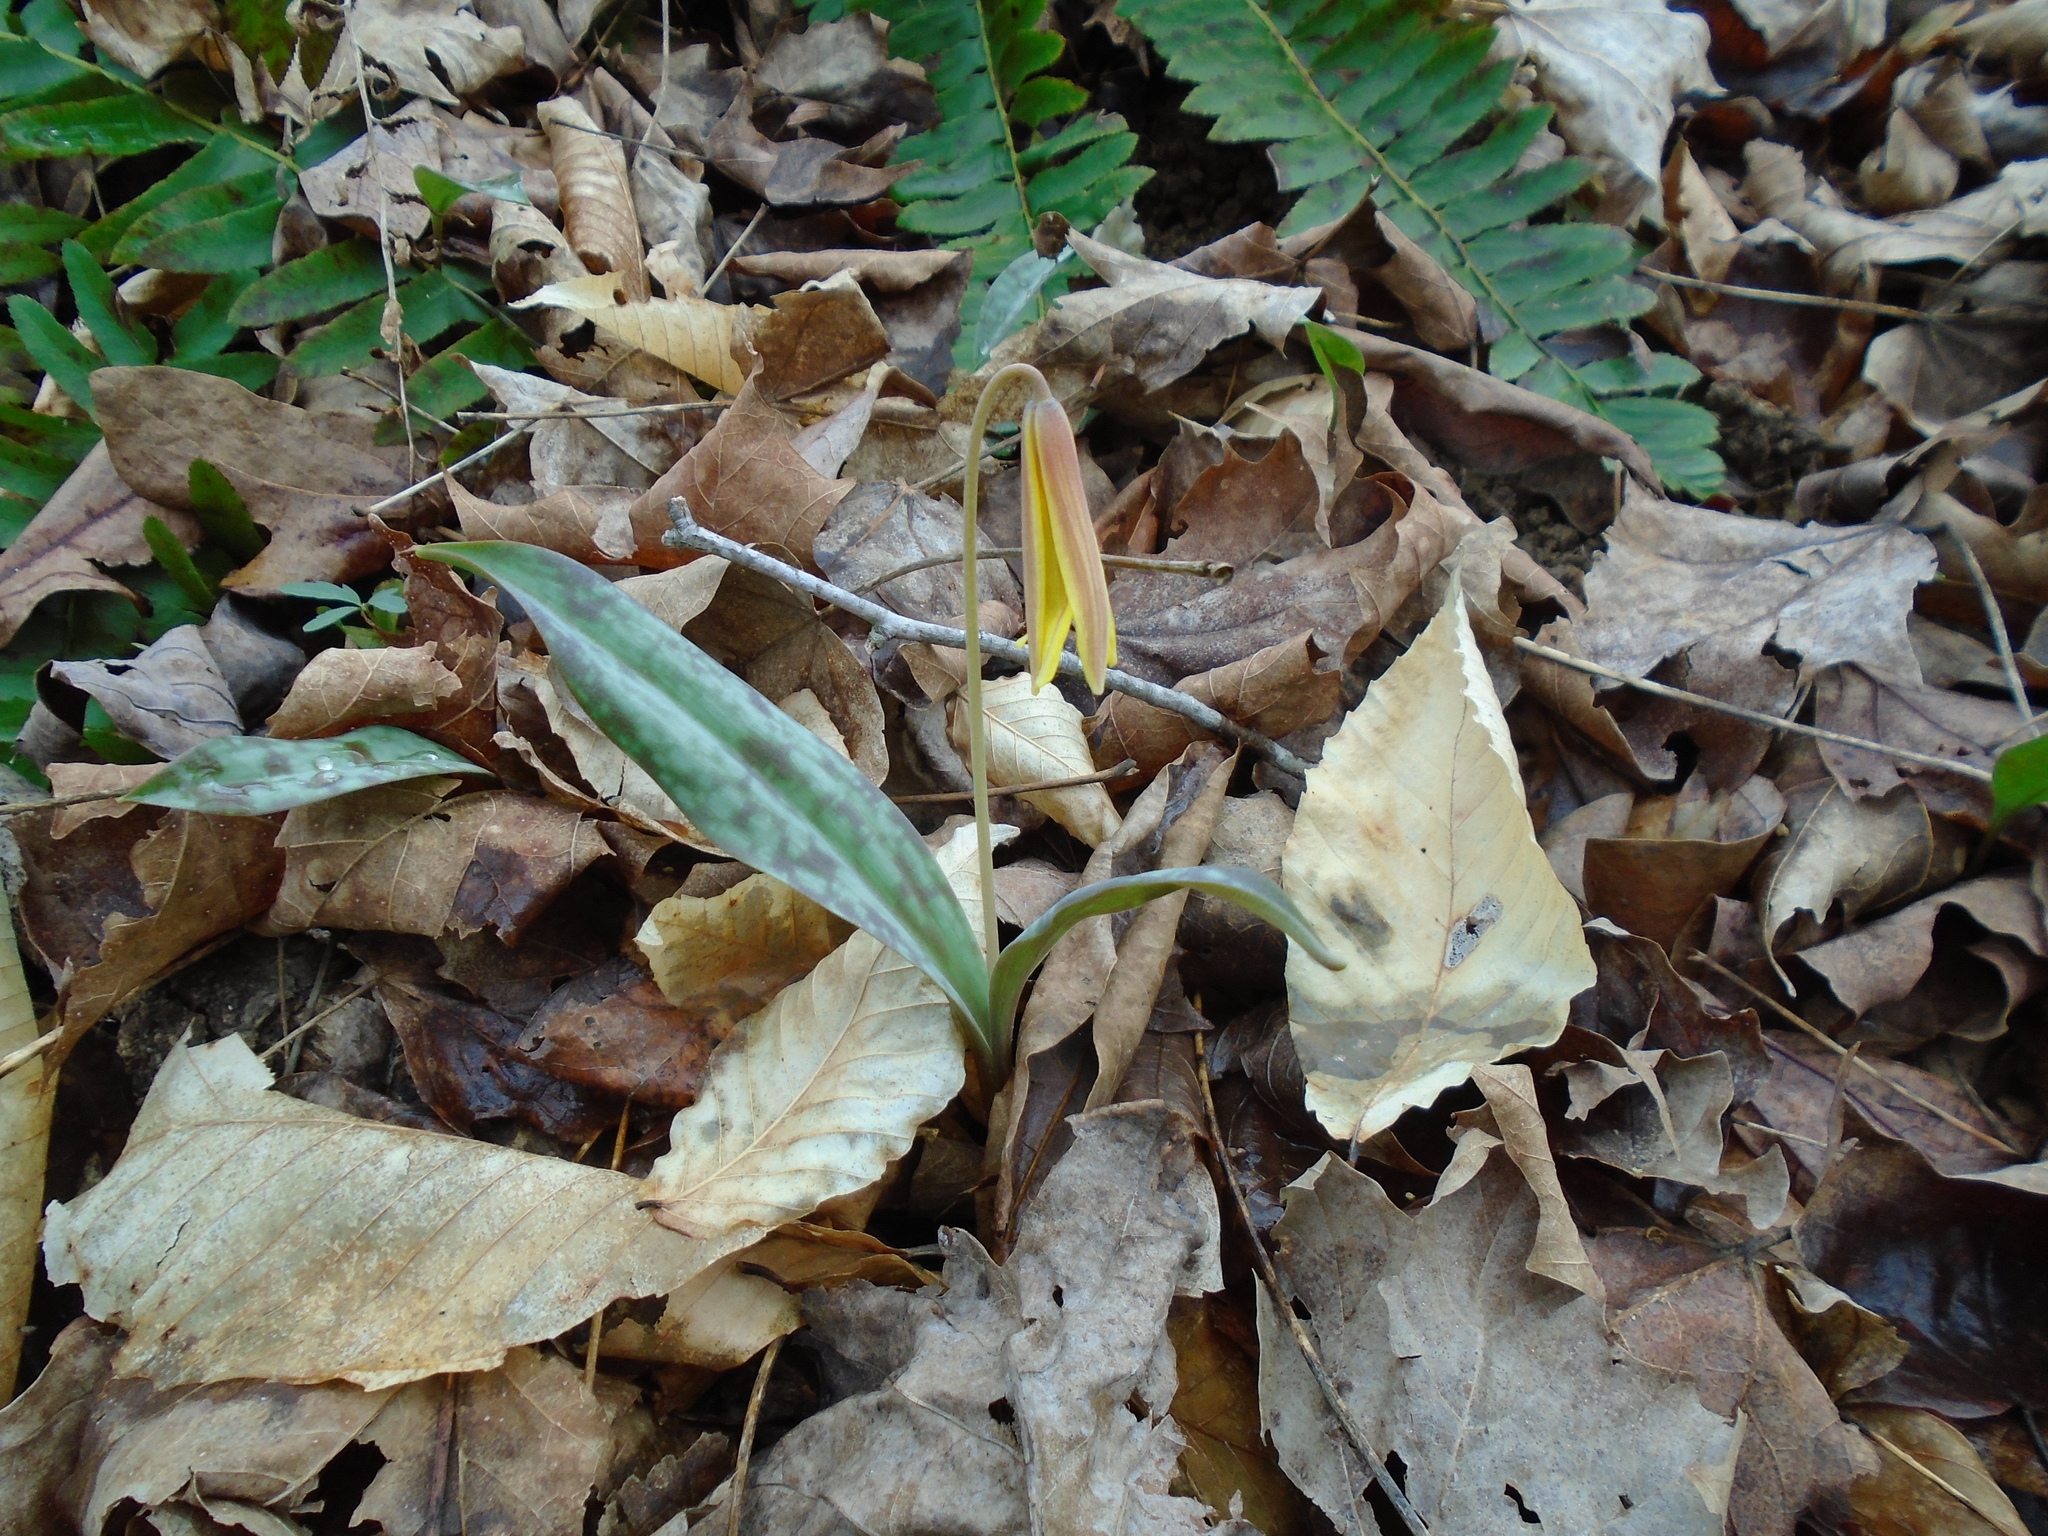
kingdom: Plantae
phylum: Tracheophyta
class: Liliopsida
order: Liliales
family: Liliaceae
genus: Erythronium
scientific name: Erythronium americanum
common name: Yellow adder's-tongue
